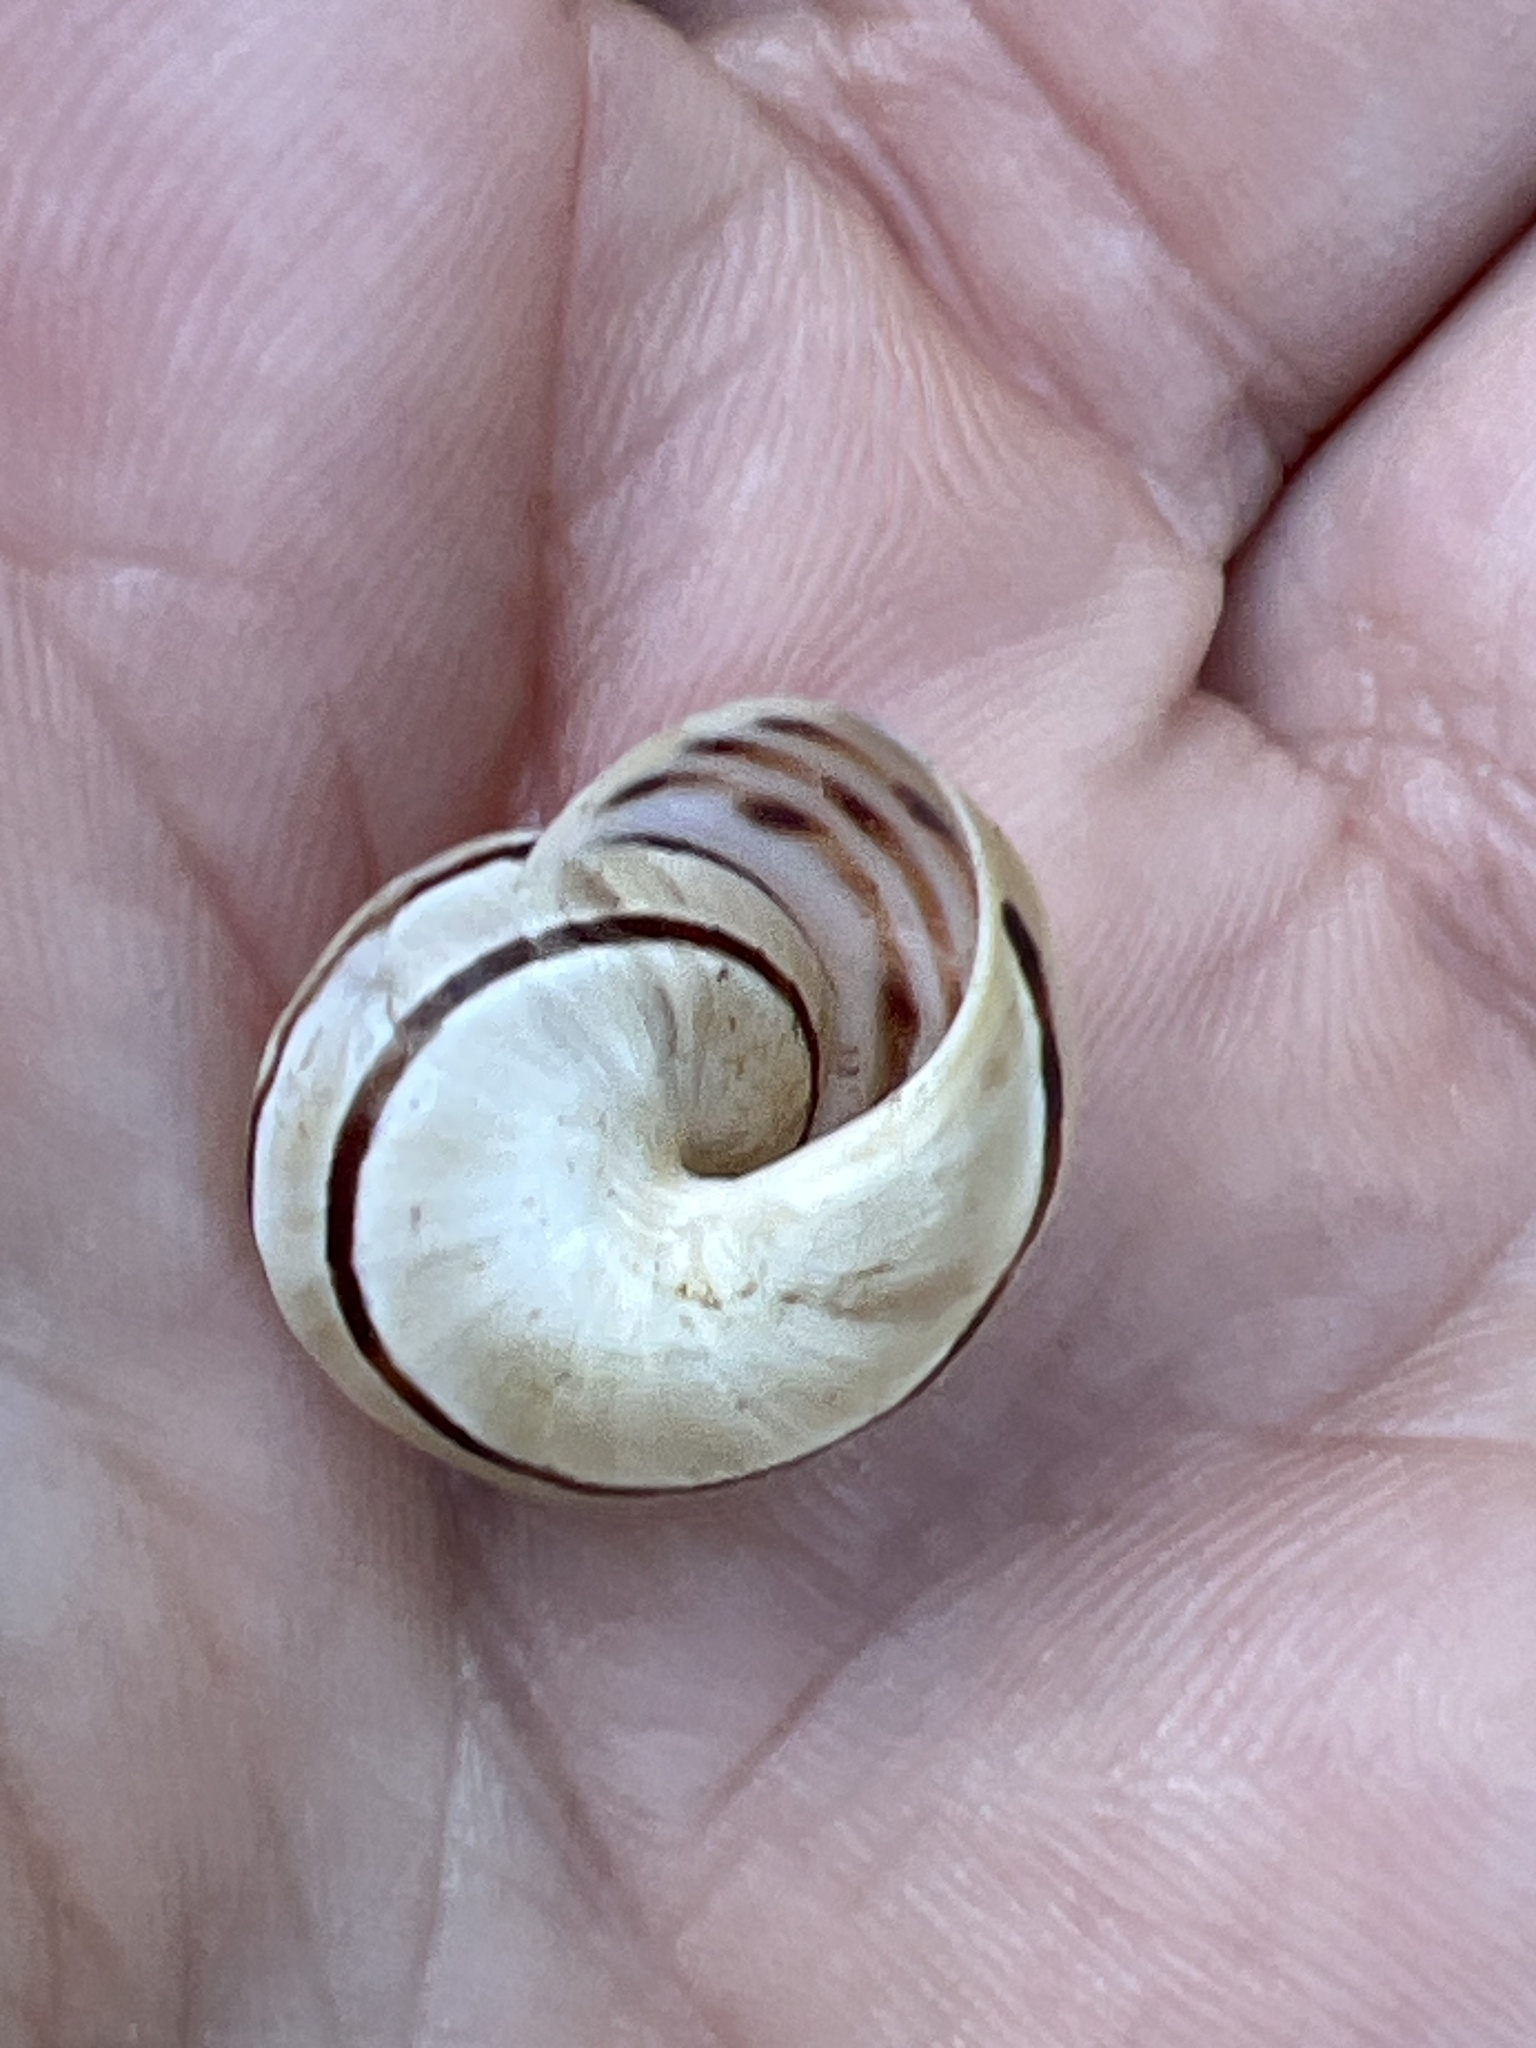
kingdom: Animalia
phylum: Mollusca
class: Gastropoda
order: Stylommatophora
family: Helicidae
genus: Pseudotachea
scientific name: Pseudotachea splendida
